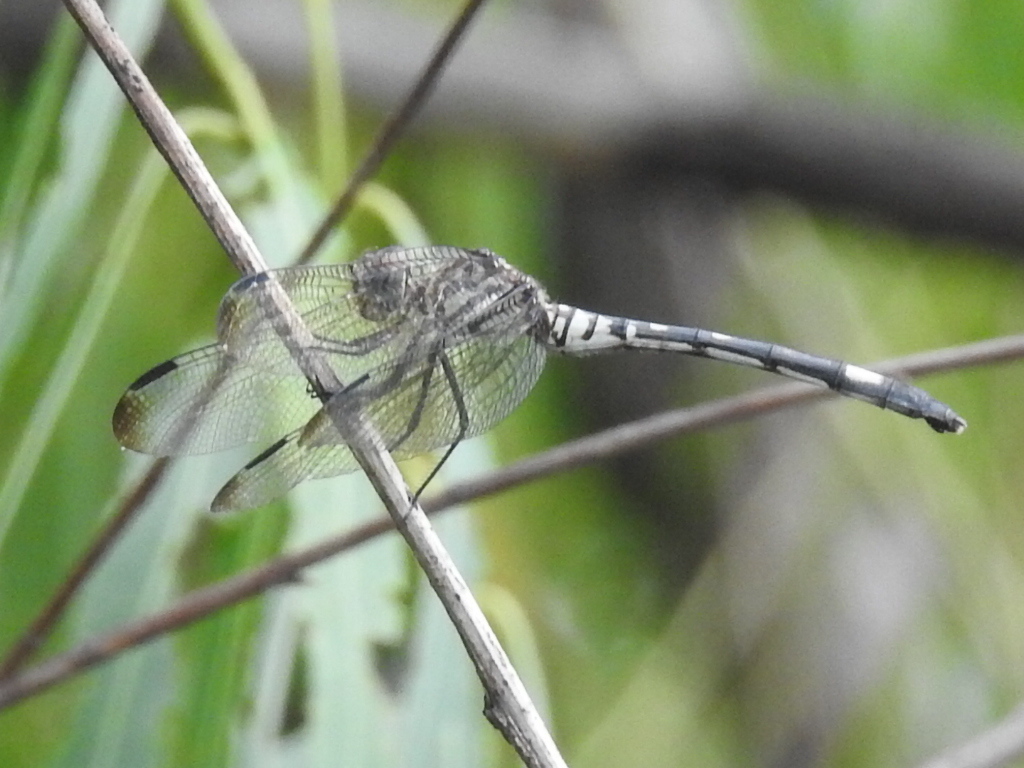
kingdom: Animalia
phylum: Arthropoda
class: Insecta
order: Odonata
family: Libellulidae
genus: Dythemis
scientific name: Dythemis velox
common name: Swift setwing
